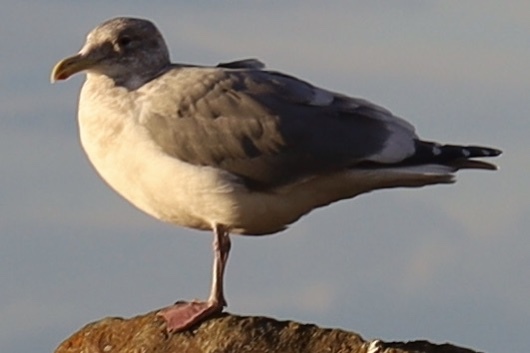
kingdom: Animalia
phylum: Chordata
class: Aves
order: Charadriiformes
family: Laridae
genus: Larus
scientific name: Larus
